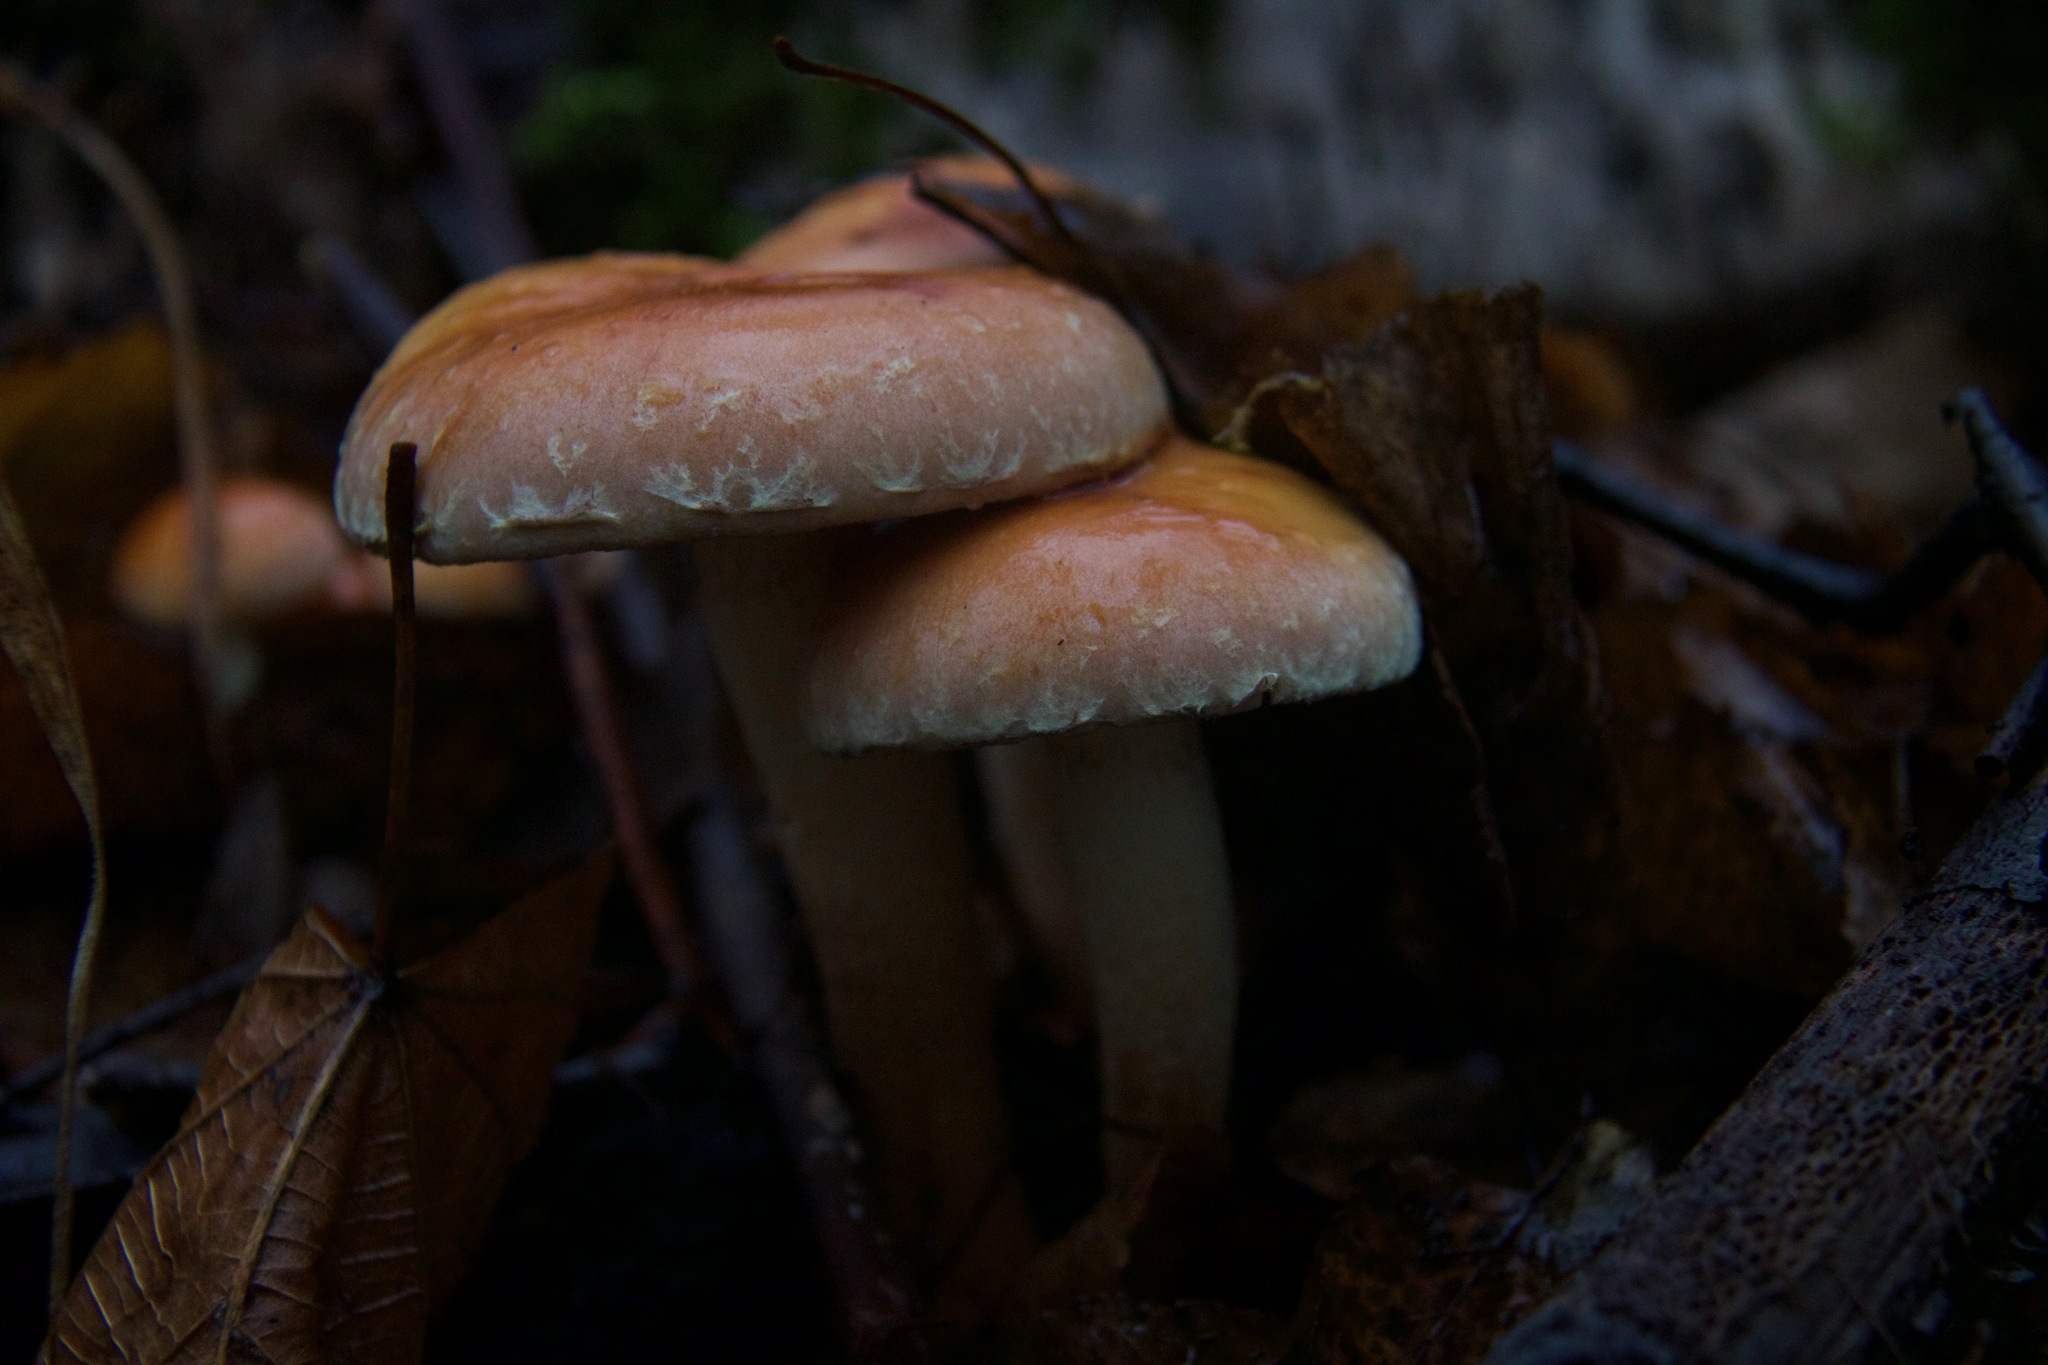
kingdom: Fungi
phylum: Basidiomycota
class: Agaricomycetes
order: Agaricales
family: Strophariaceae
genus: Hypholoma
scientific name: Hypholoma lateritium
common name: Brick caps
